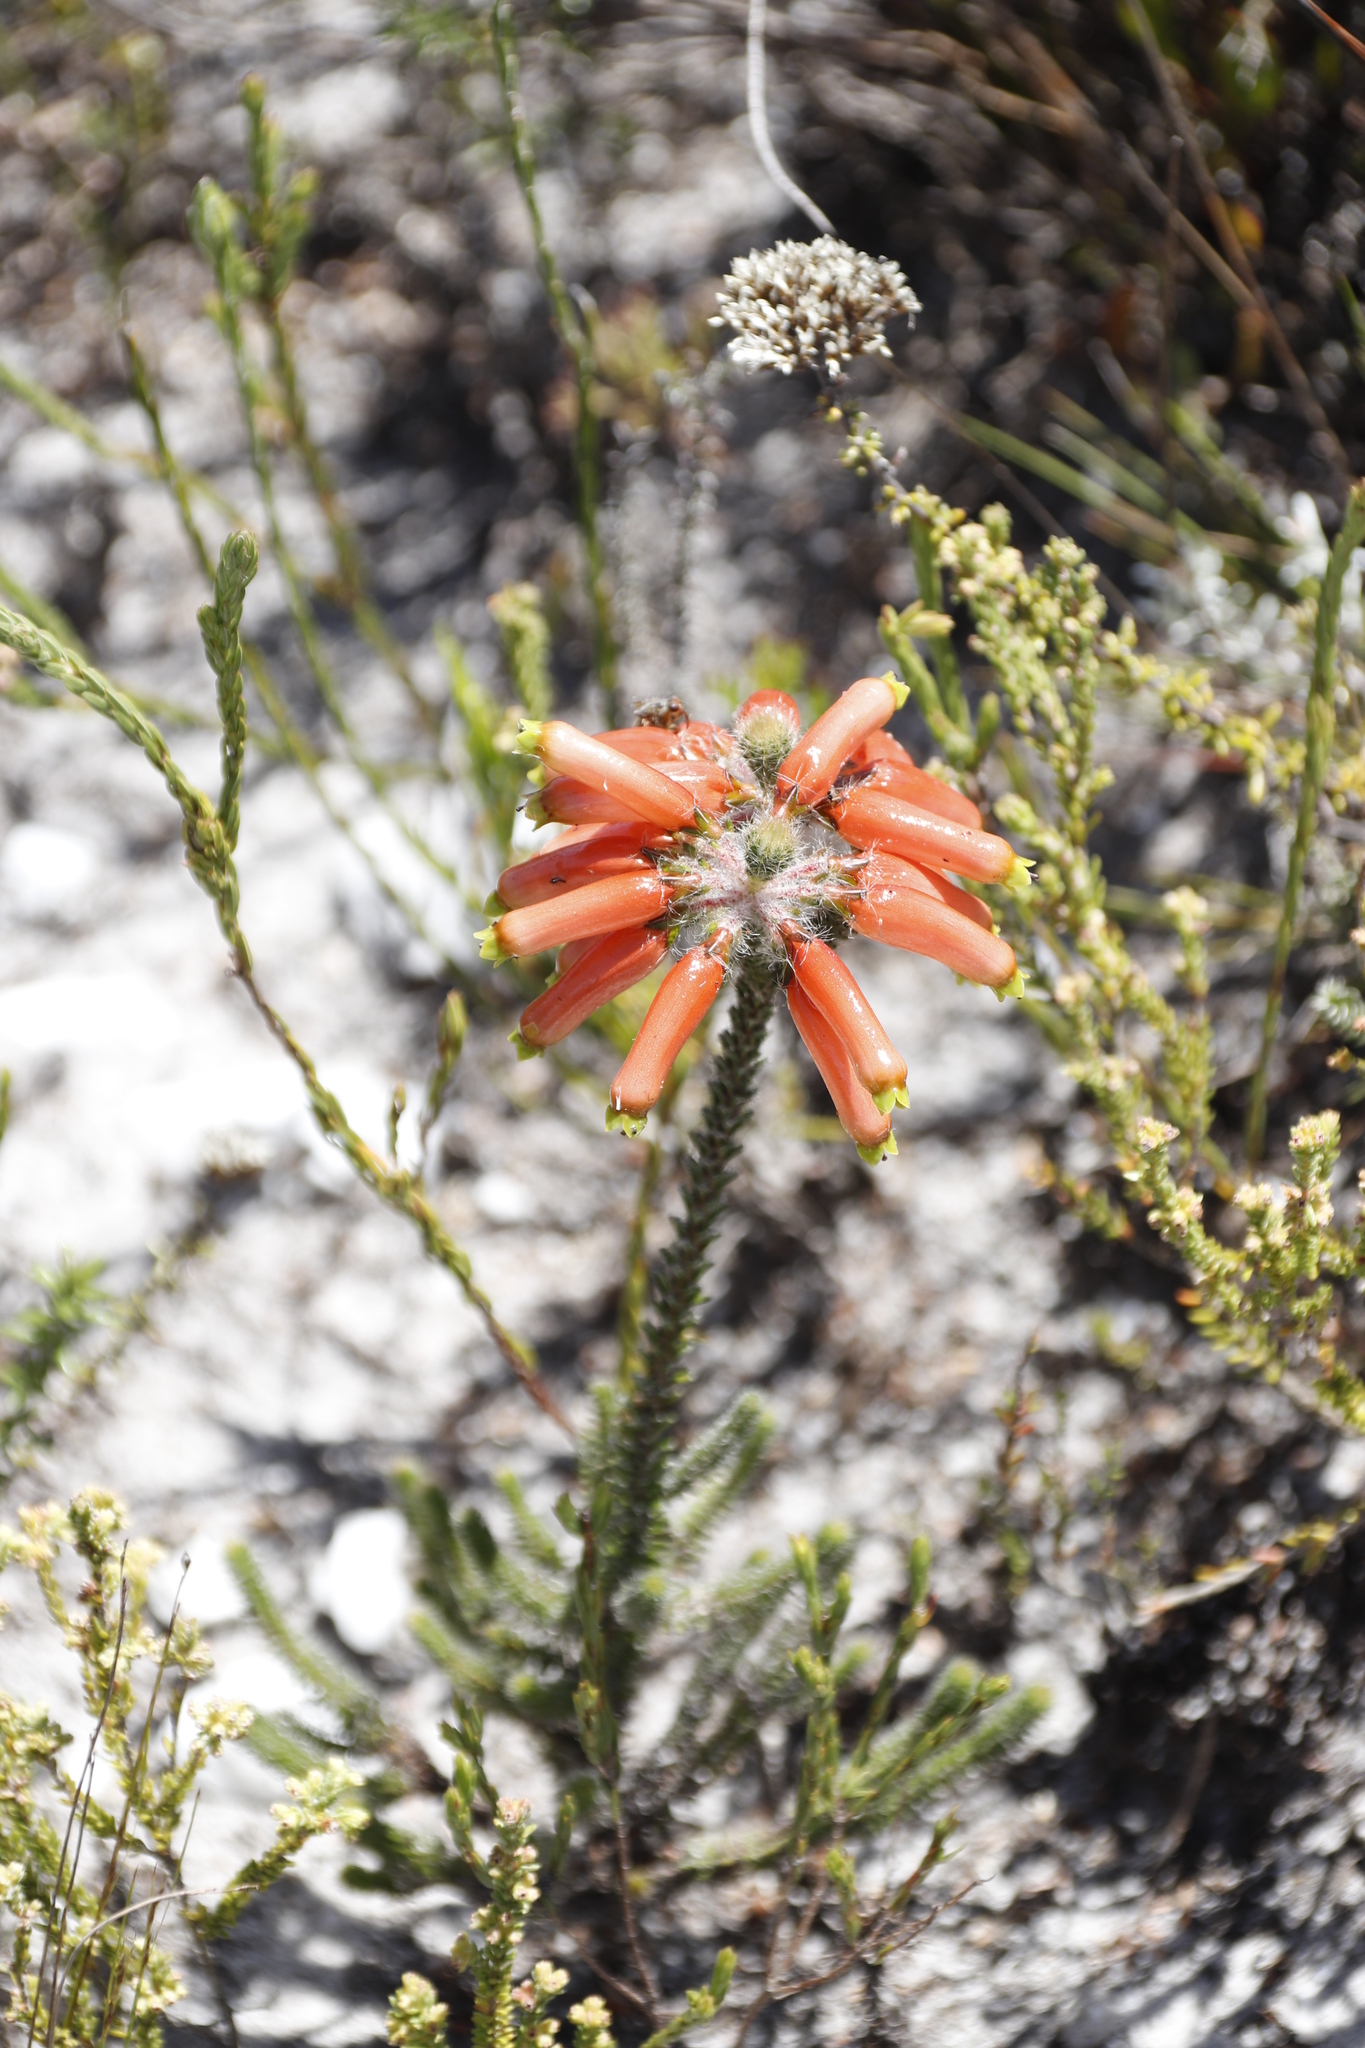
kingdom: Plantae
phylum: Tracheophyta
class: Magnoliopsida
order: Ericales
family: Ericaceae
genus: Erica
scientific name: Erica massonii
